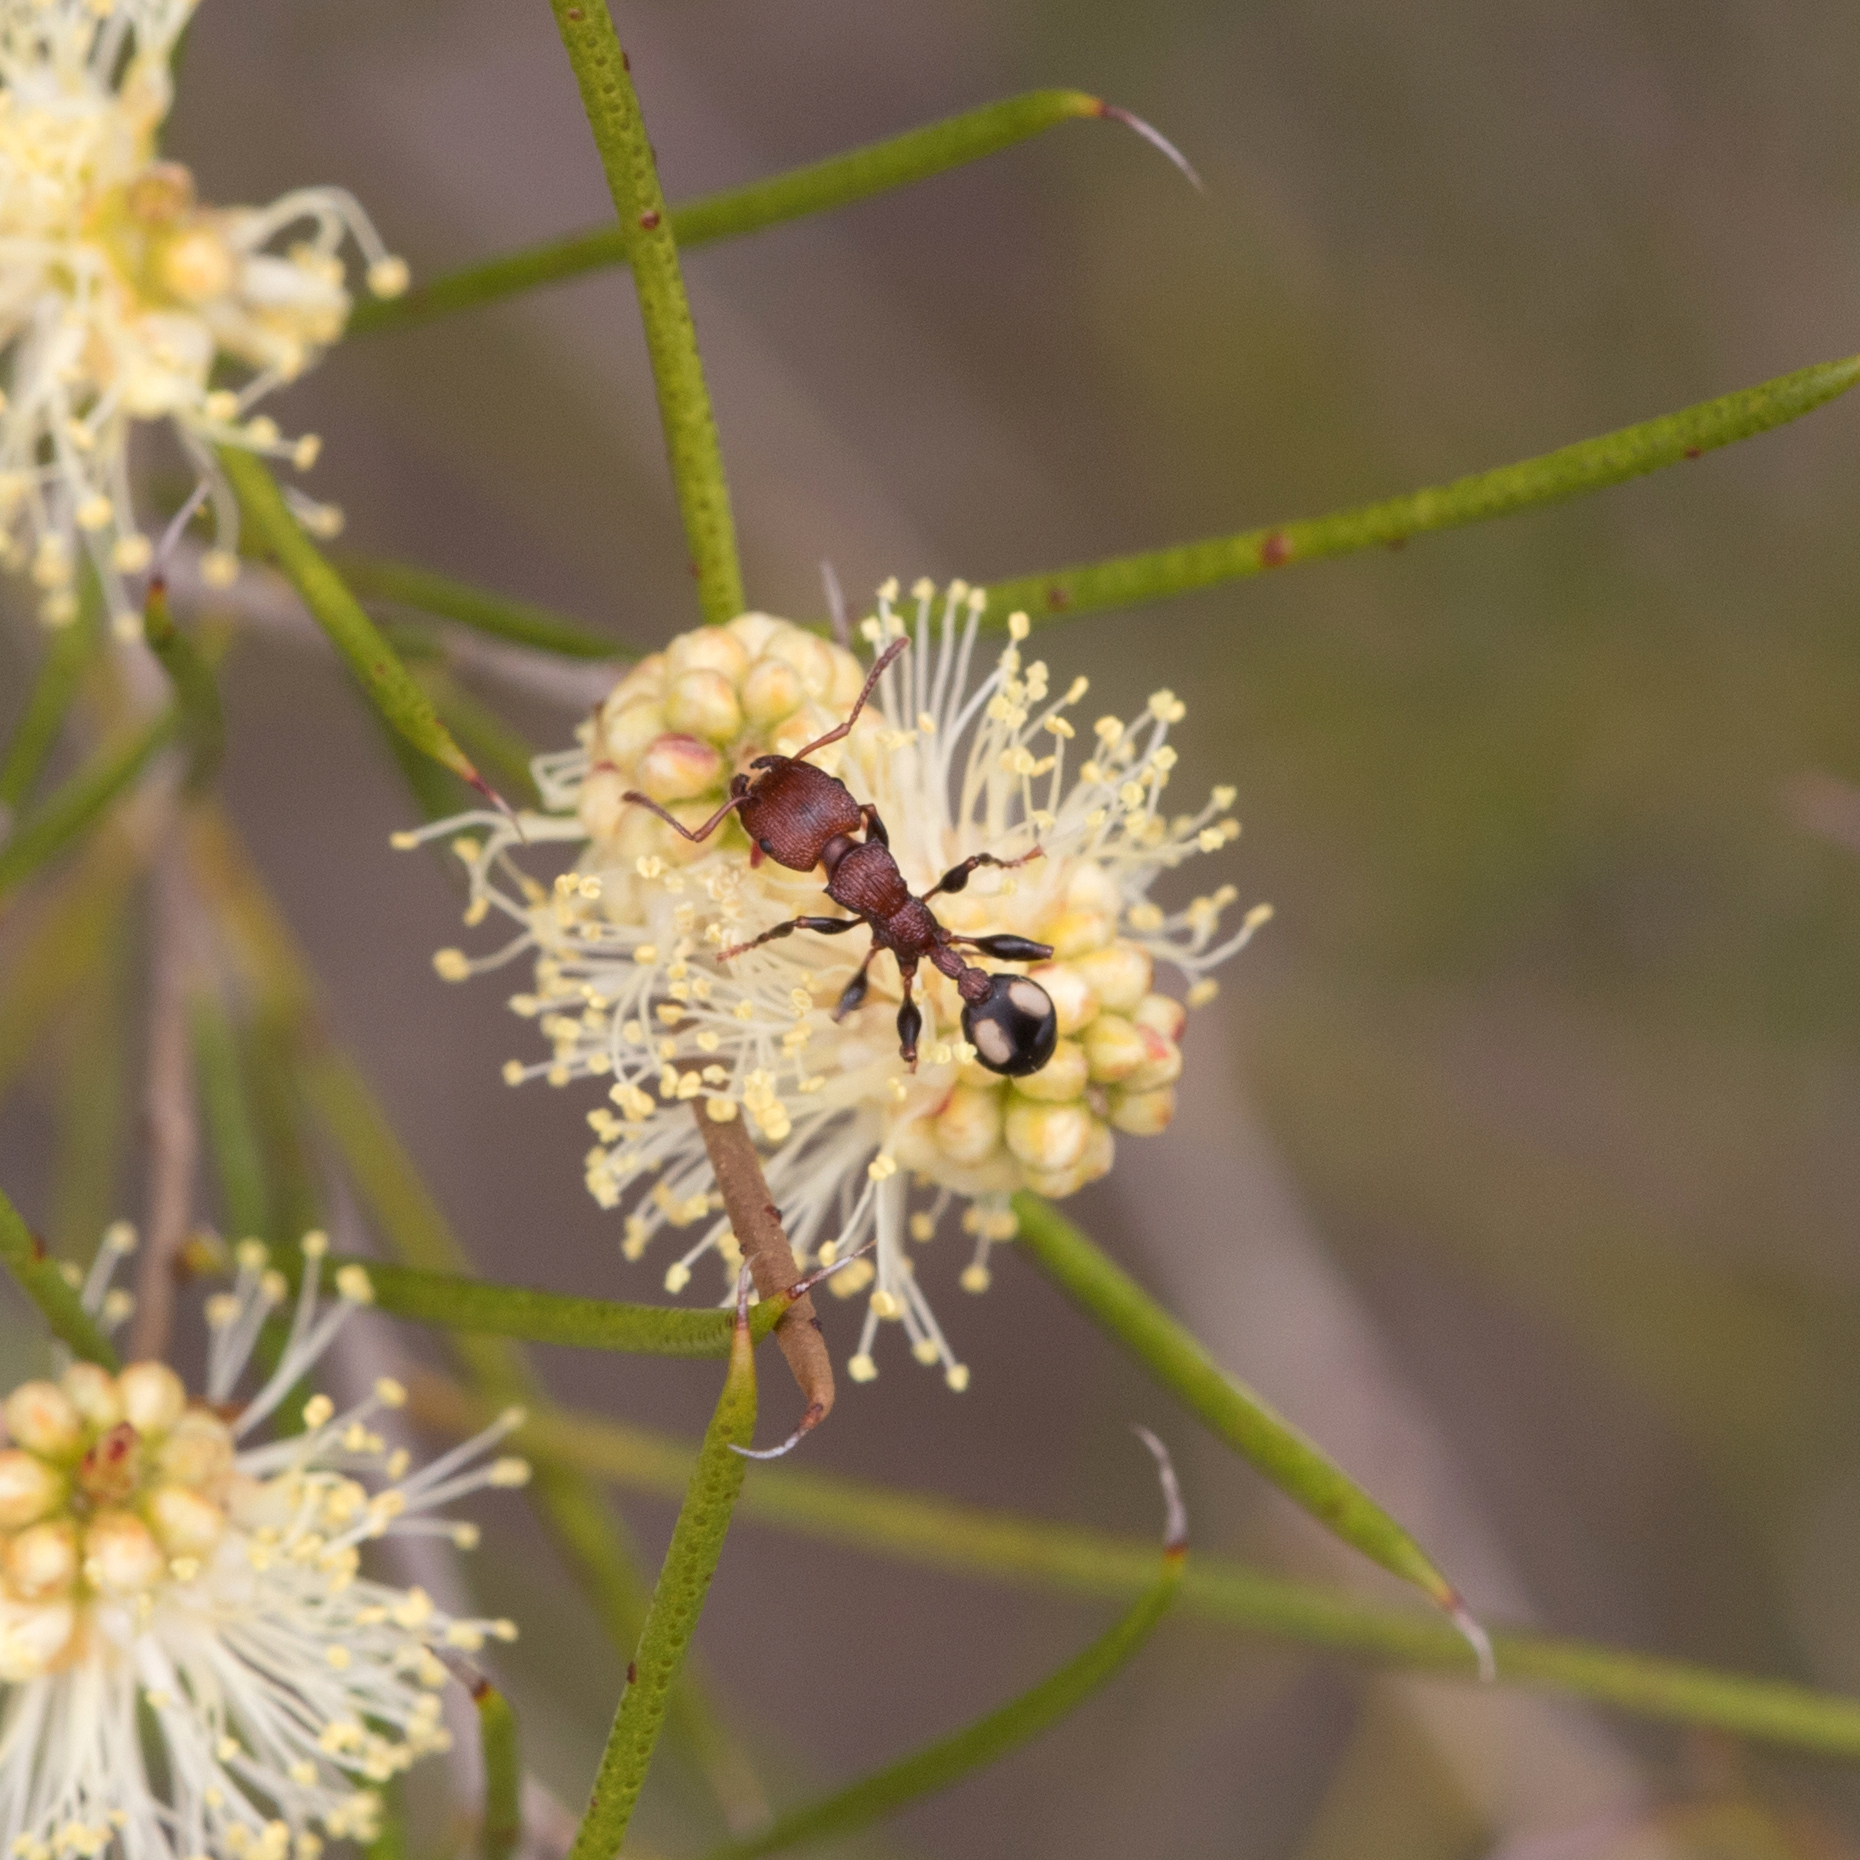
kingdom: Animalia
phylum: Arthropoda
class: Insecta
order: Hymenoptera
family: Formicidae
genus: Podomyrma
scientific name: Podomyrma adelaidae
